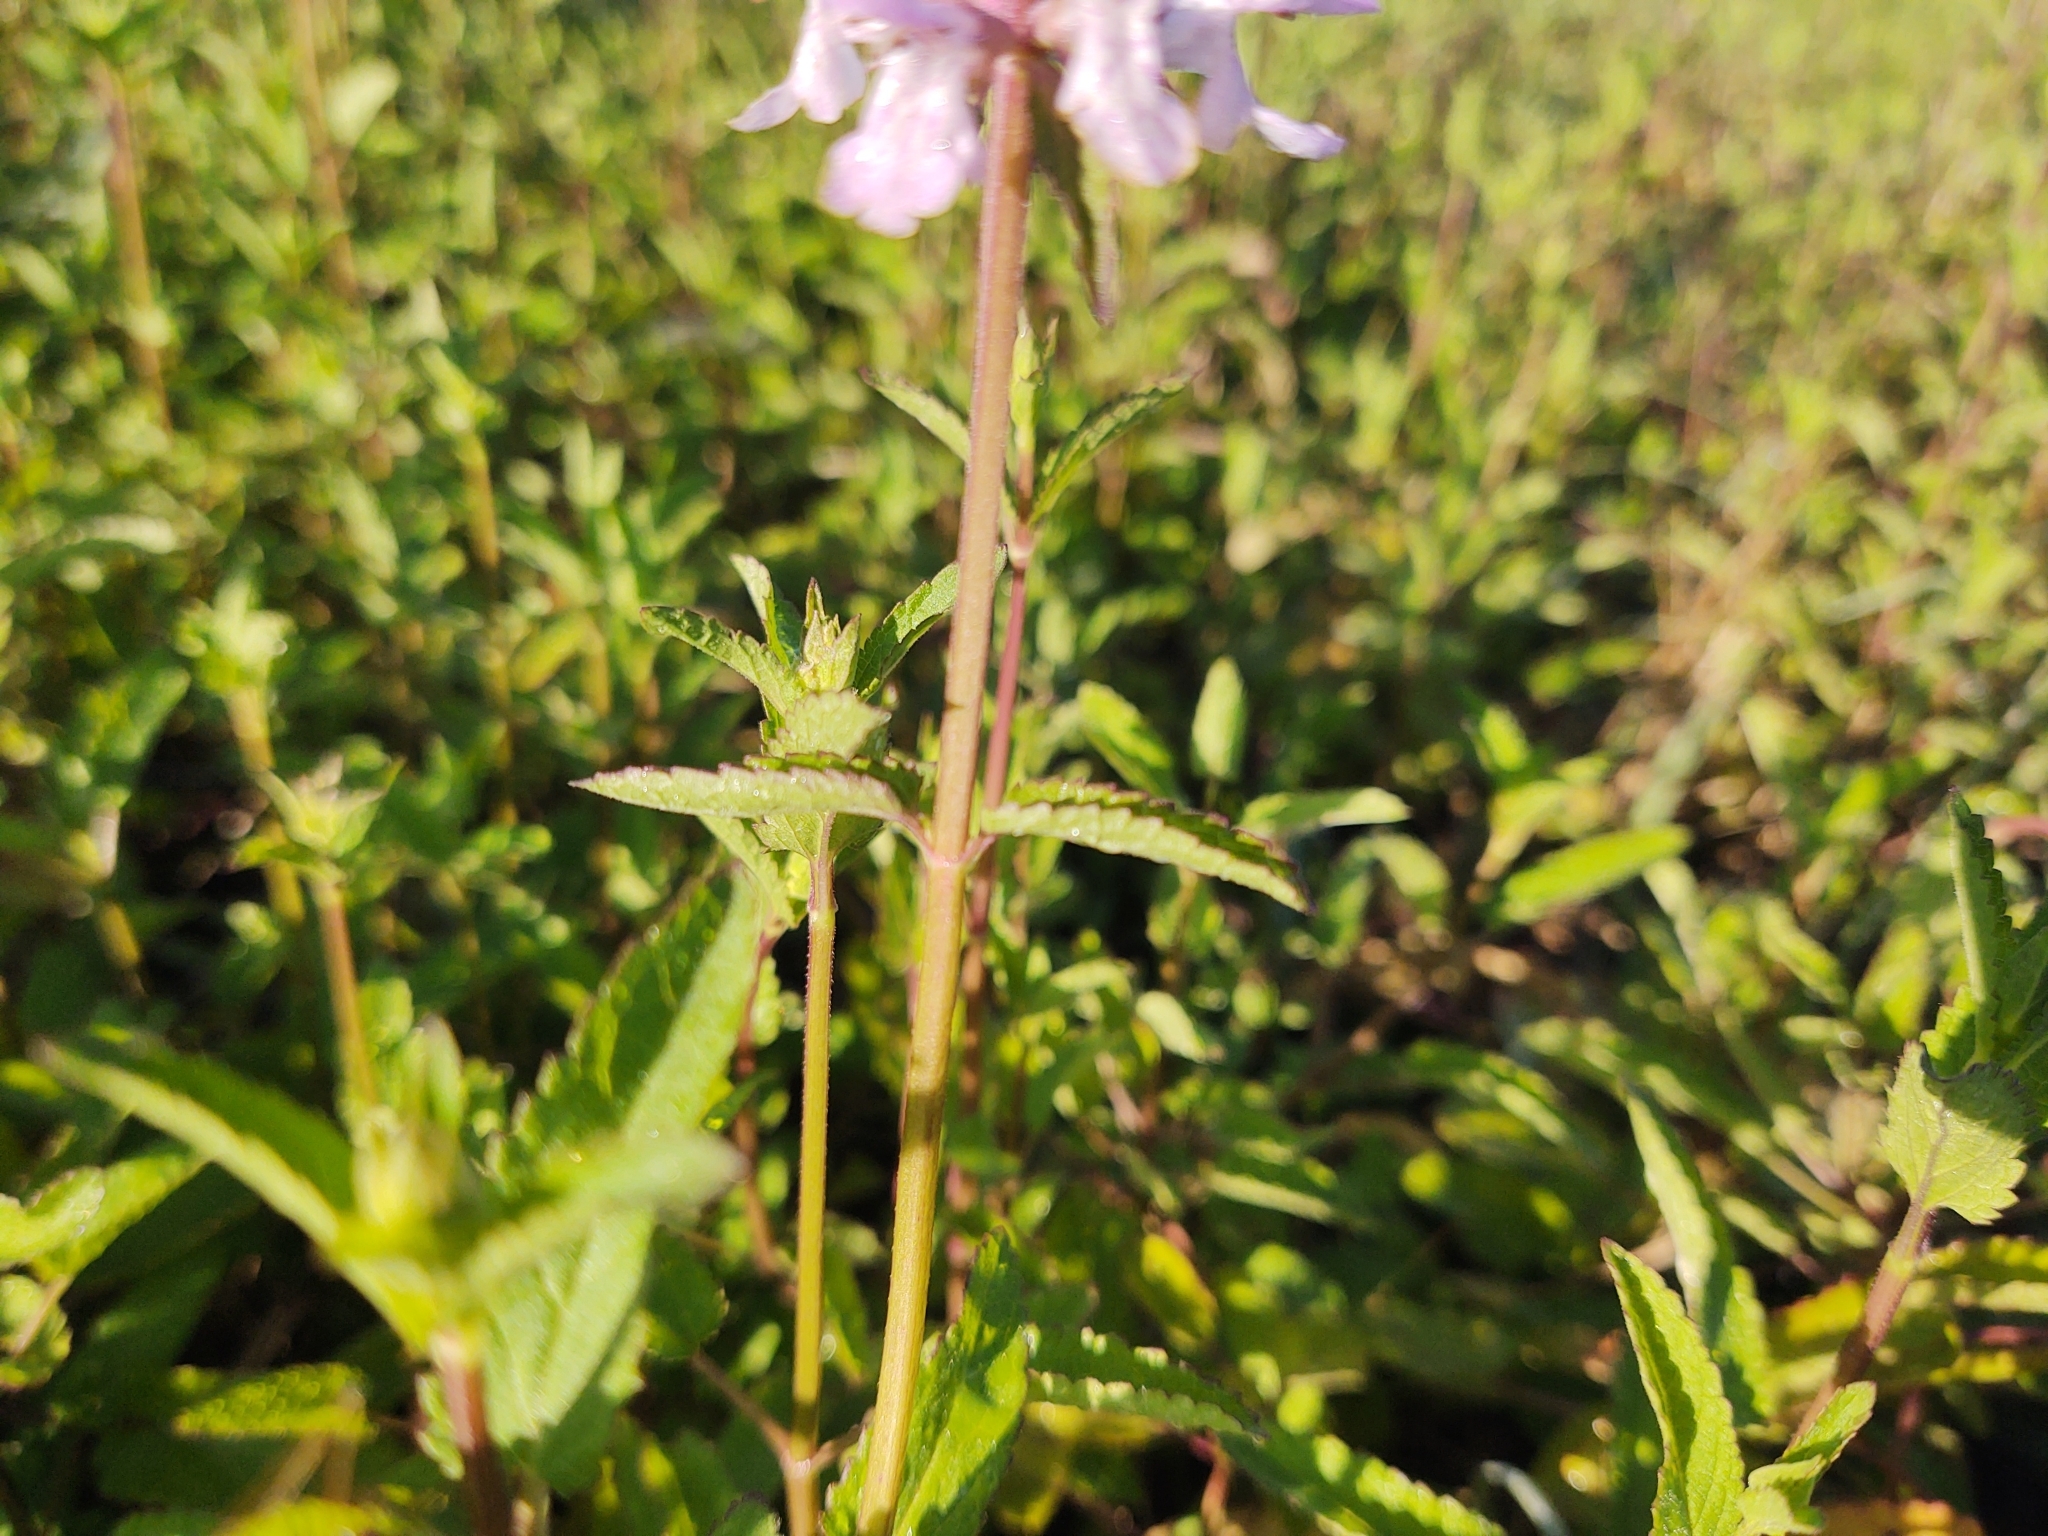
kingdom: Plantae
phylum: Tracheophyta
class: Magnoliopsida
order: Lamiales
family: Lamiaceae
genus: Stachys
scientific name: Stachys floridana
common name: Florida betony
